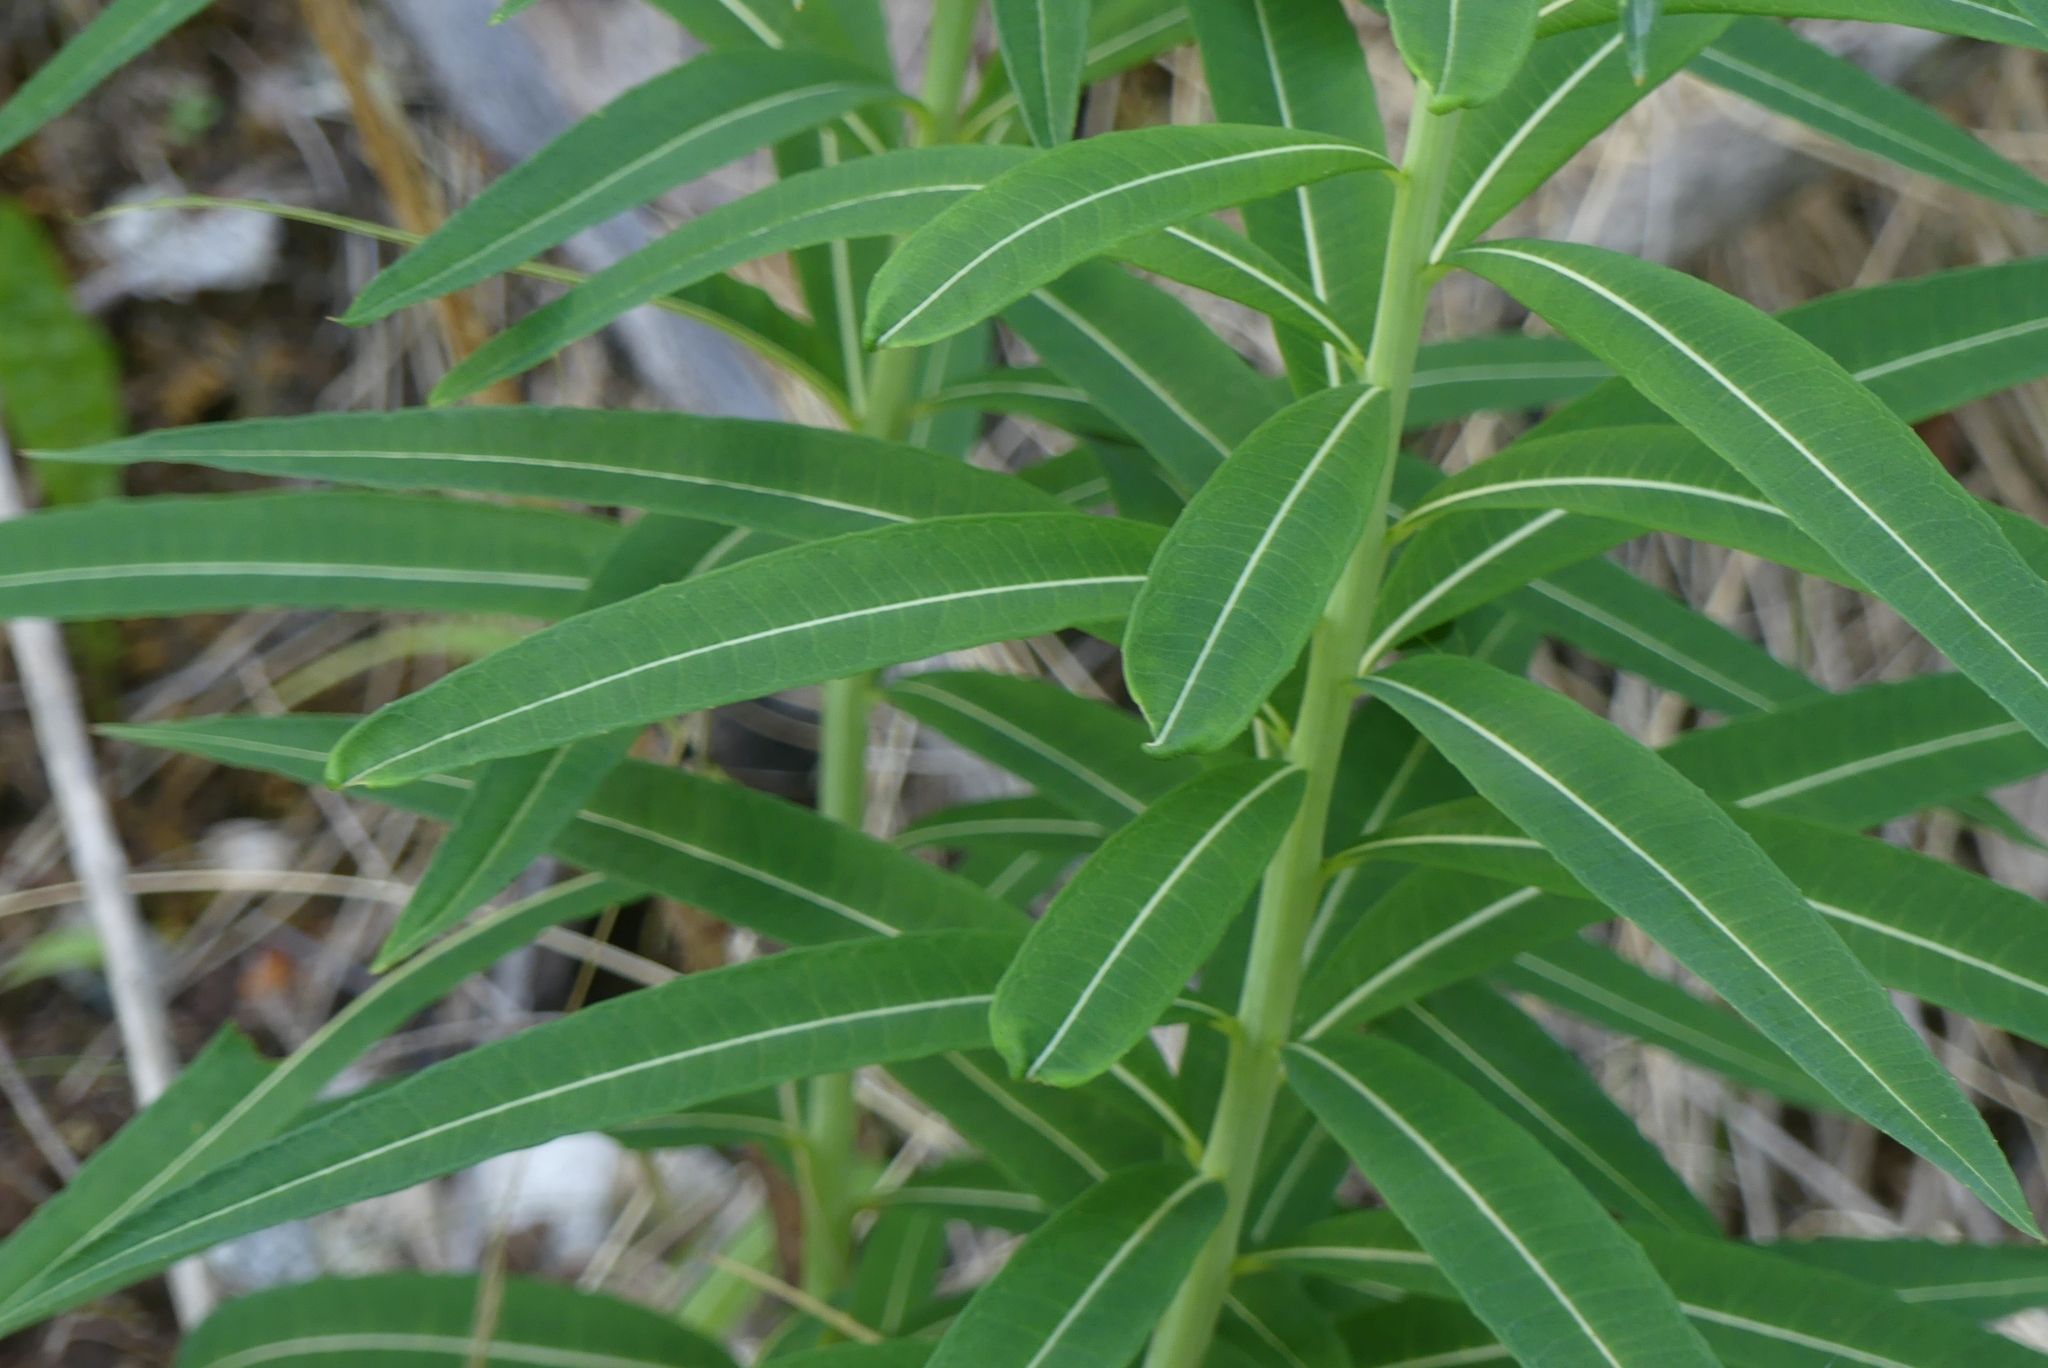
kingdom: Plantae
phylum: Tracheophyta
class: Magnoliopsida
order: Myrtales
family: Onagraceae
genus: Chamaenerion
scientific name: Chamaenerion angustifolium
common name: Fireweed
